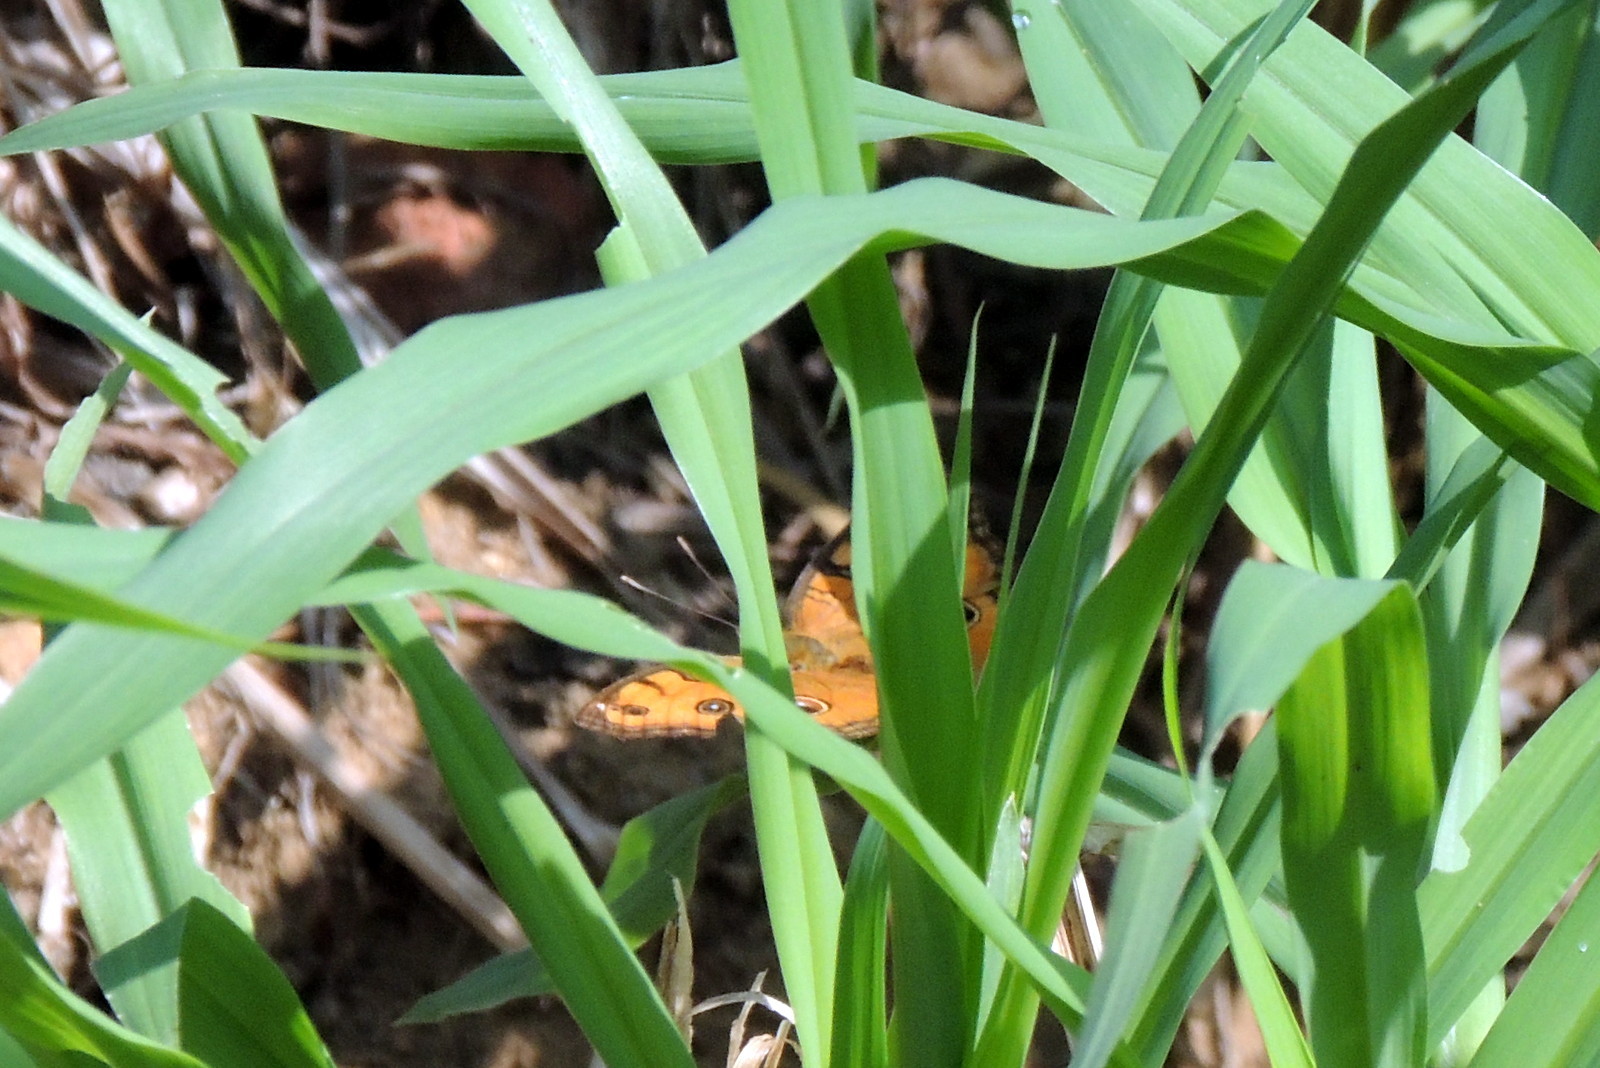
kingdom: Animalia
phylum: Arthropoda
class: Insecta
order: Lepidoptera
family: Nymphalidae
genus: Junonia
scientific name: Junonia almana
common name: Peacock pansy
